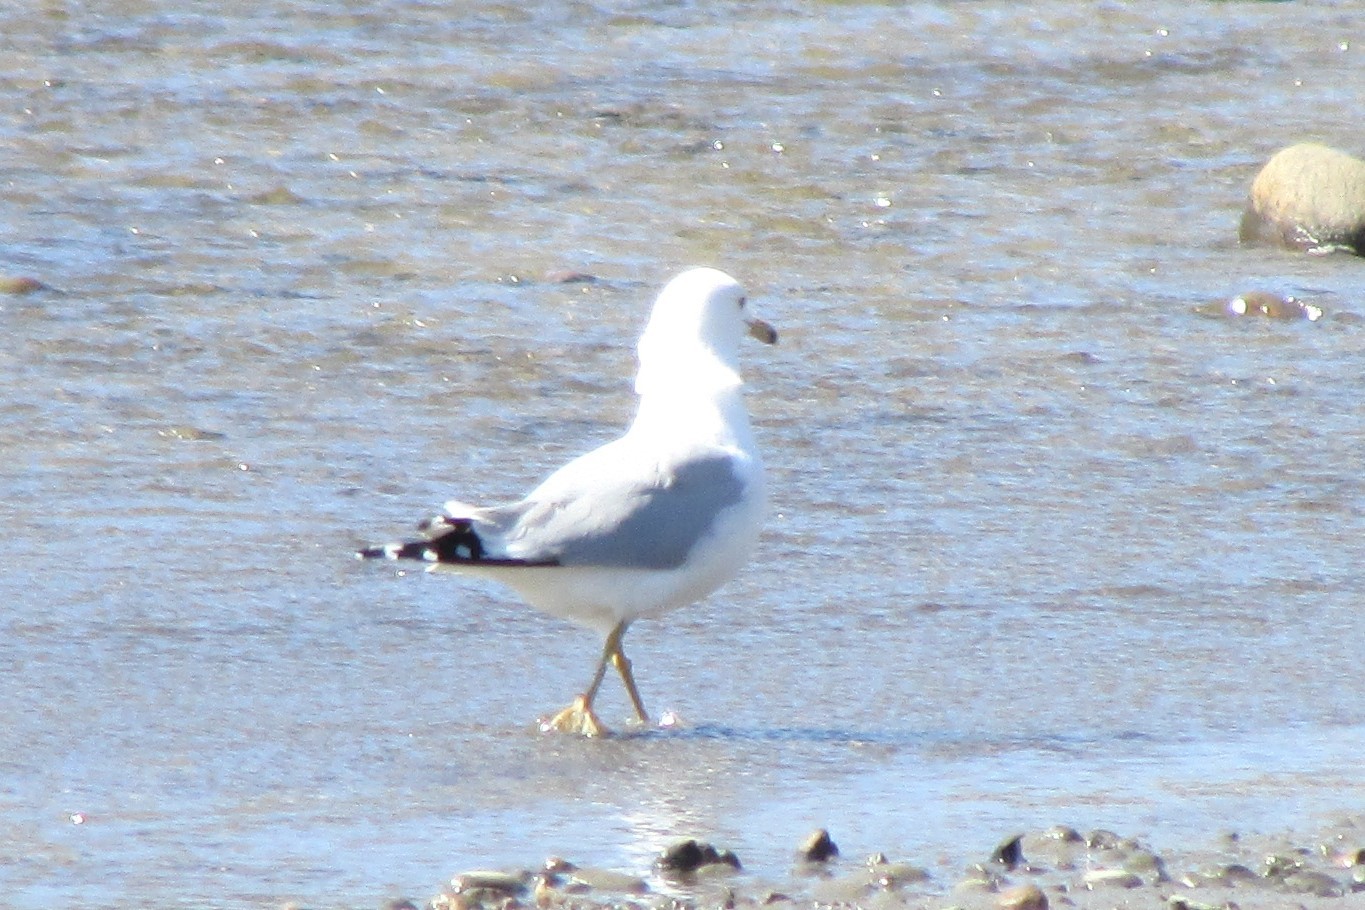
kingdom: Animalia
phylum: Chordata
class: Aves
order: Charadriiformes
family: Laridae
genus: Larus
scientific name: Larus delawarensis
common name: Ring-billed gull
